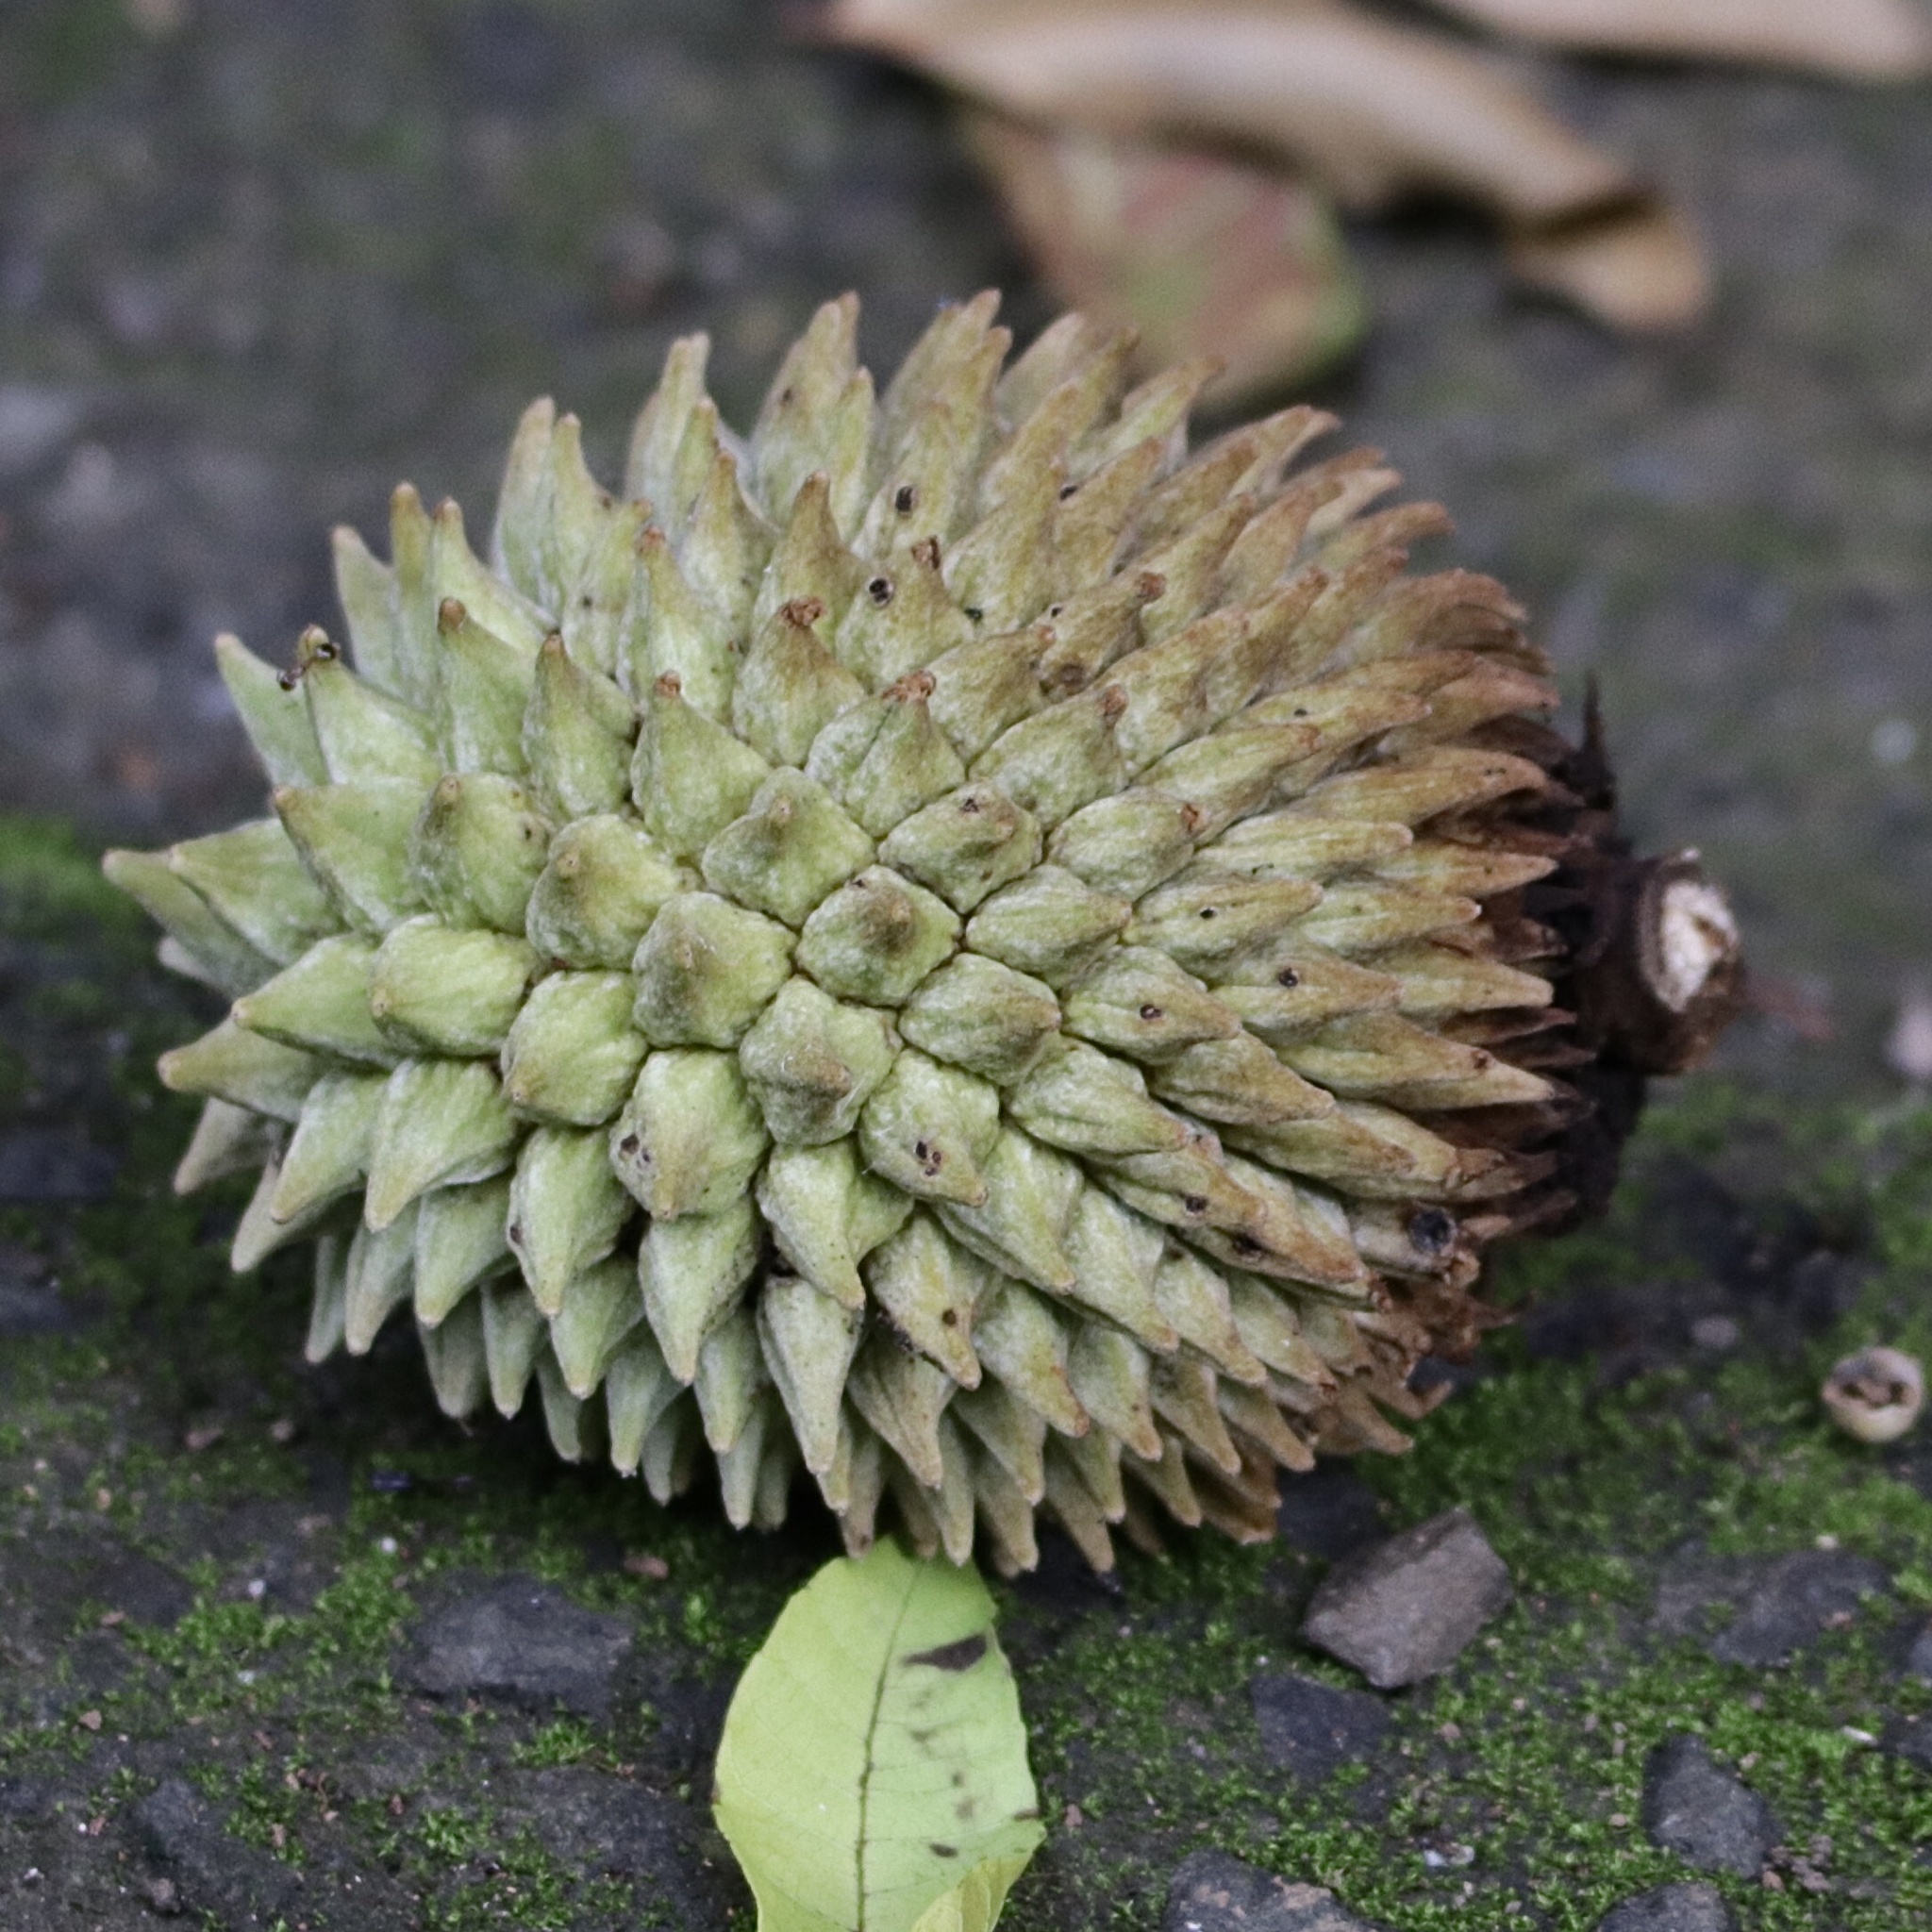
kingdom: Plantae
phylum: Tracheophyta
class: Magnoliopsida
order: Magnoliales
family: Annonaceae
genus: Annona
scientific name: Annona purpurea
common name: Negrohead
